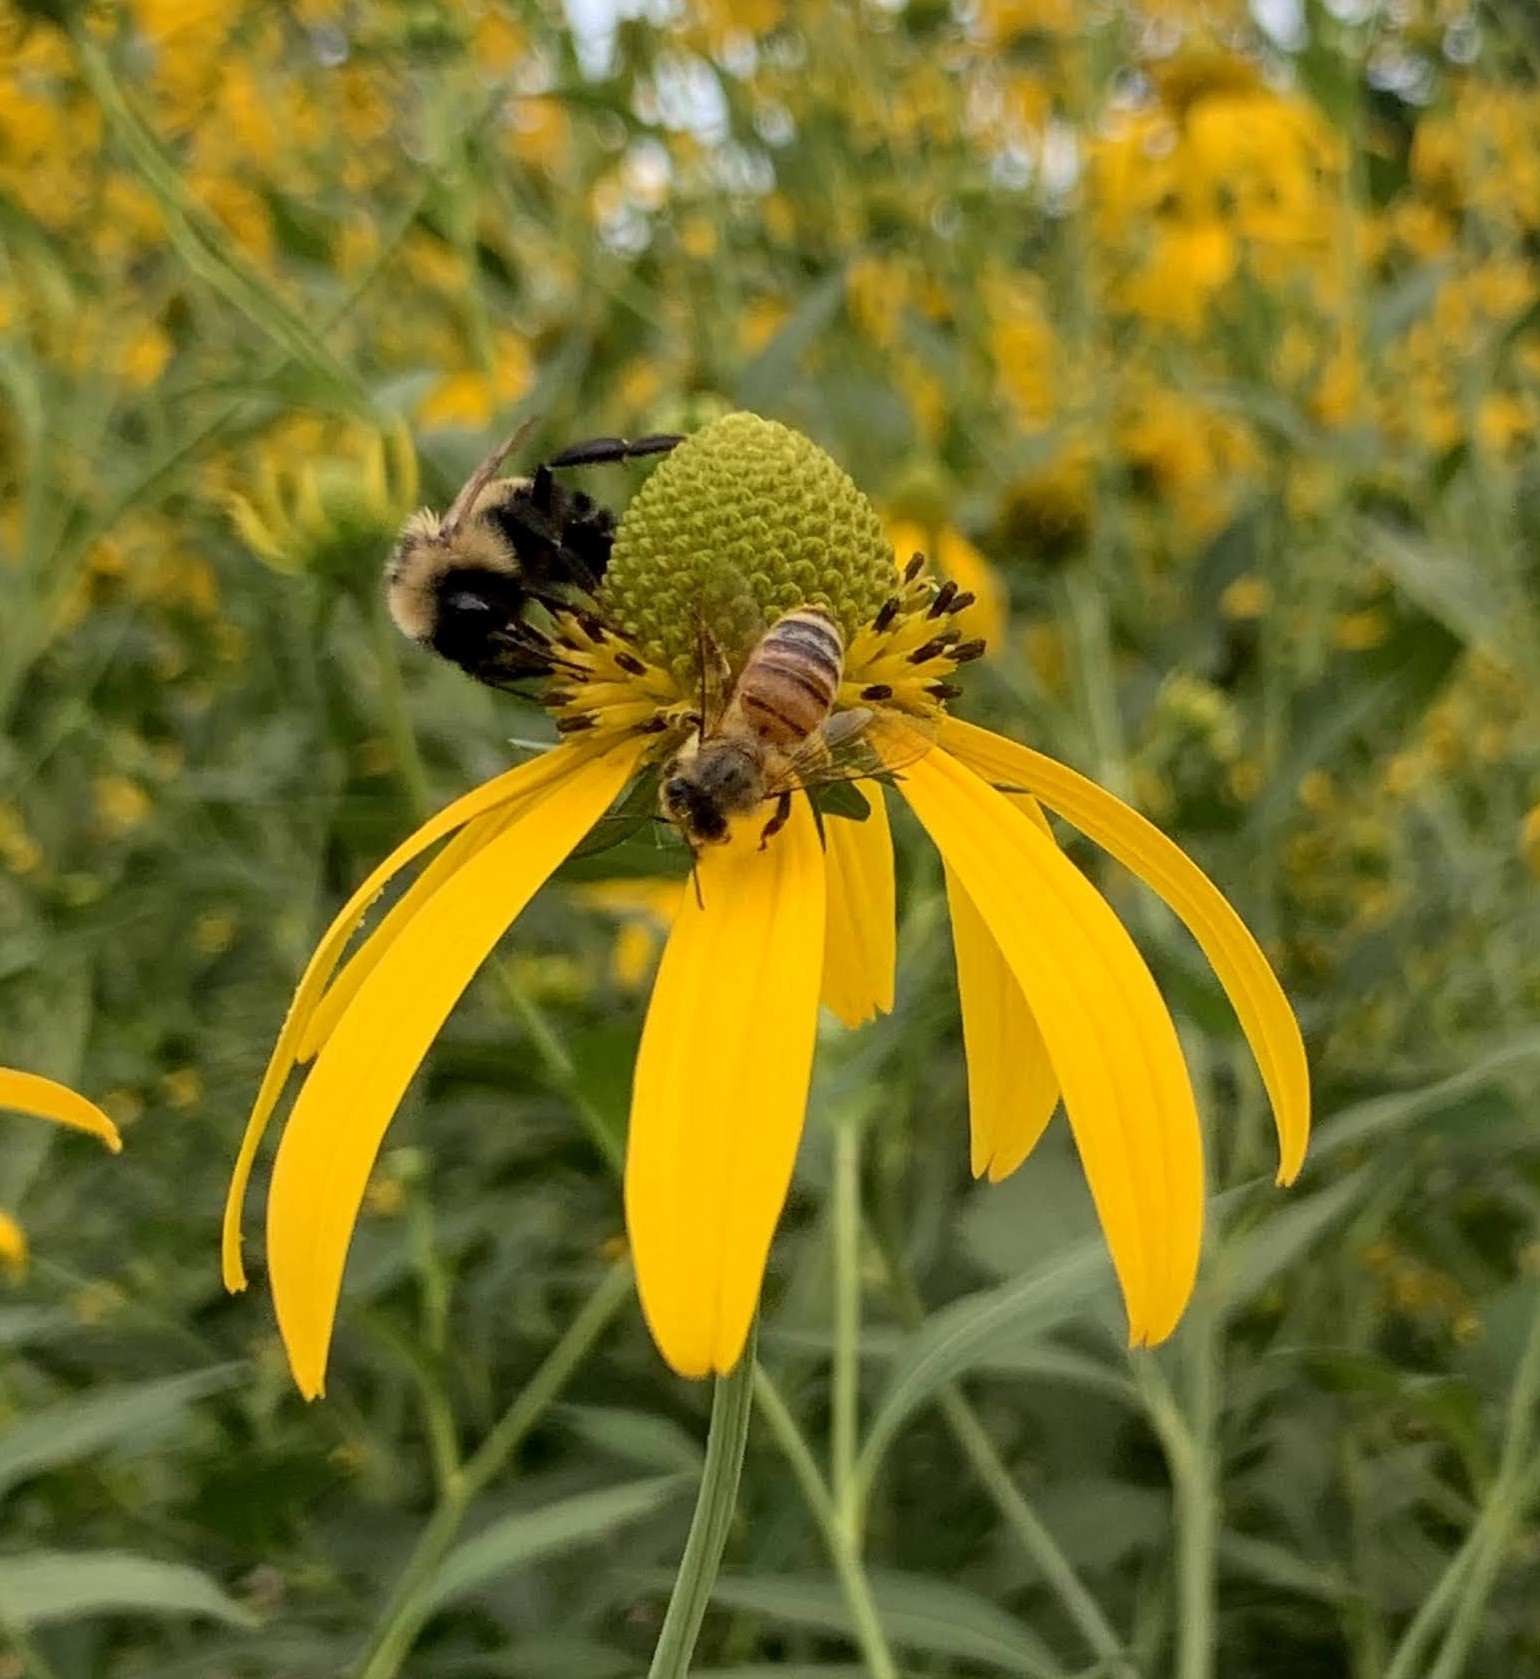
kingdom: Animalia
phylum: Arthropoda
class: Insecta
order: Hymenoptera
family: Apidae
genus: Apis
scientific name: Apis mellifera
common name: Honey bee
